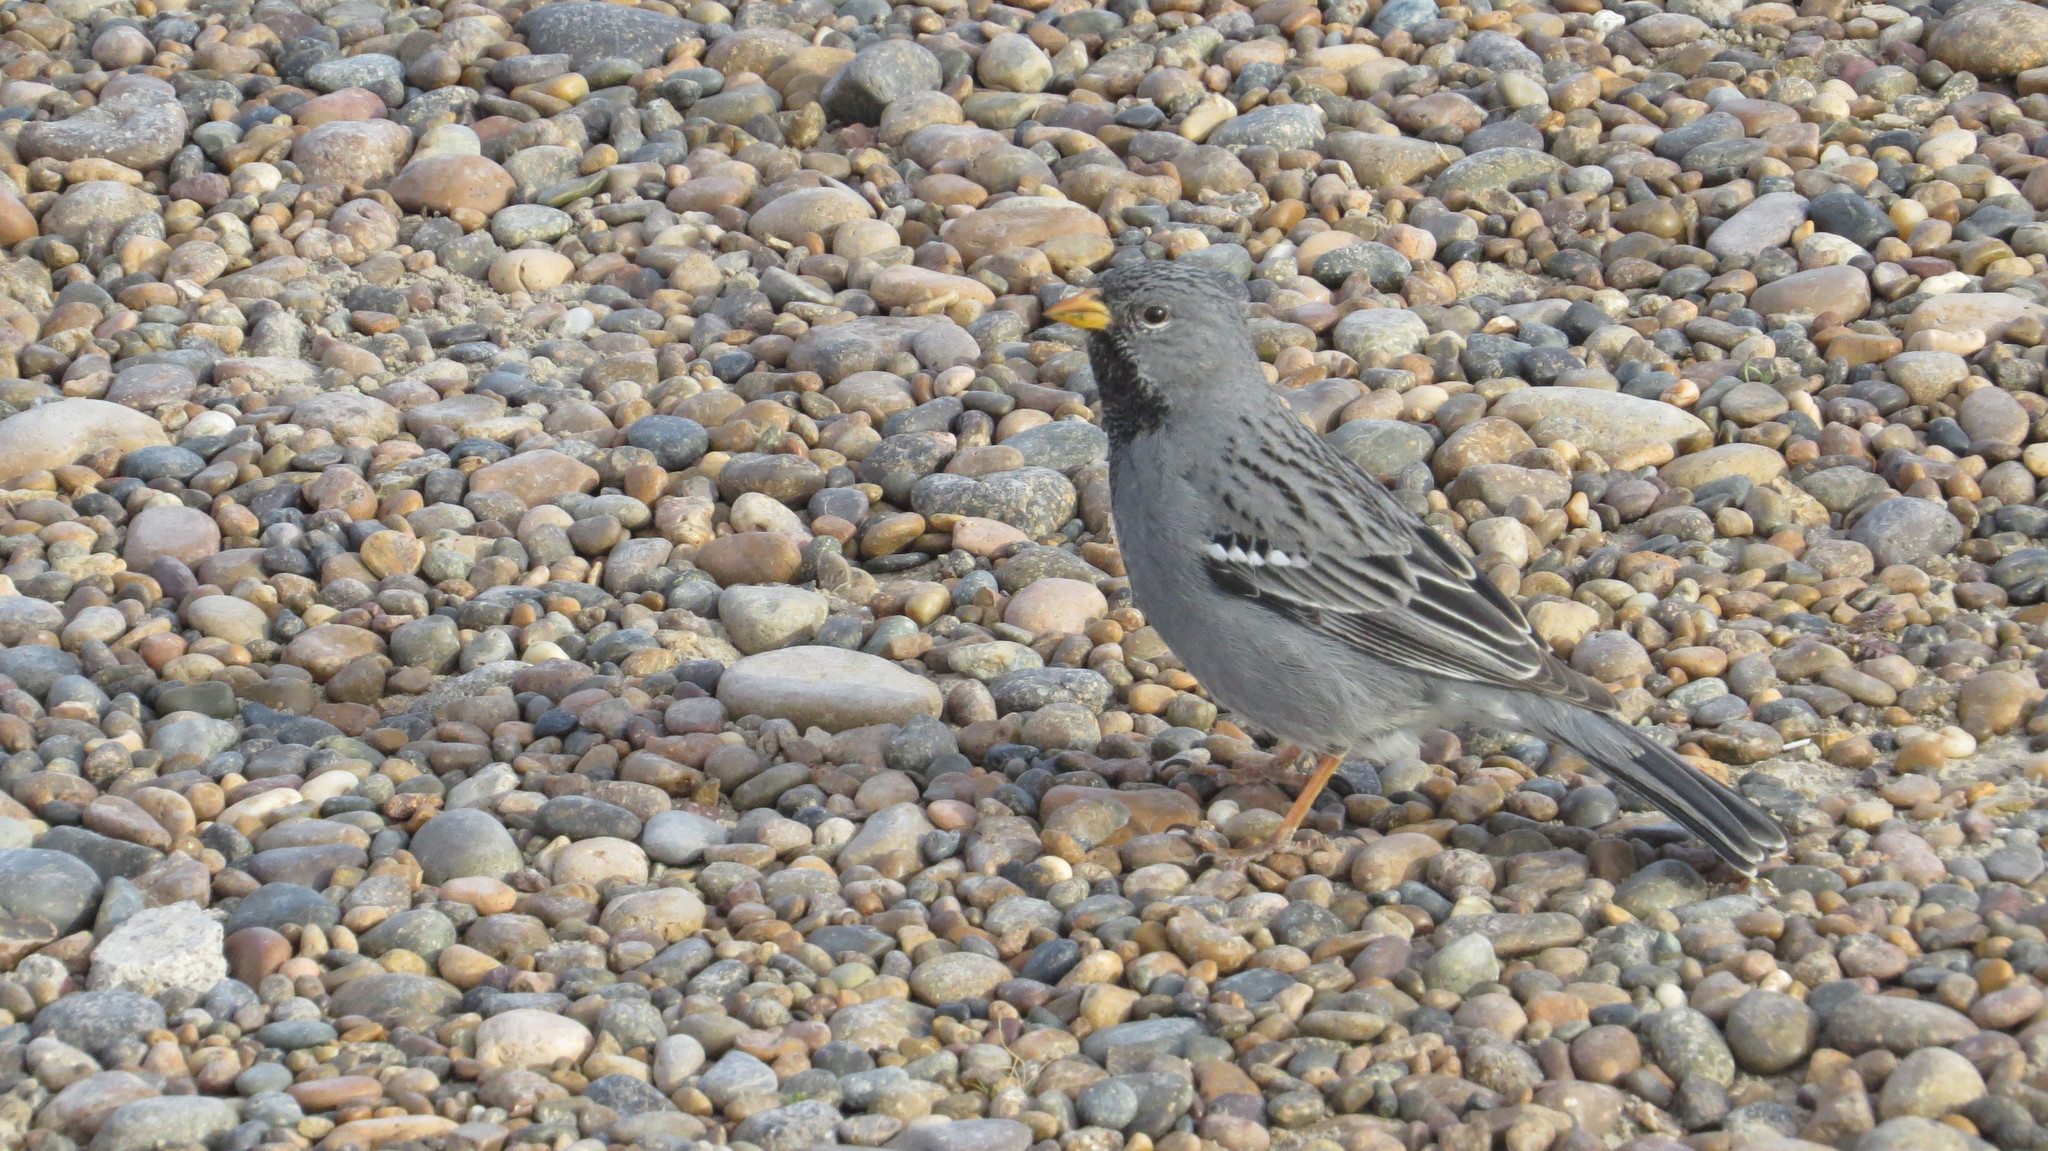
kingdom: Animalia
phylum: Chordata
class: Aves
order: Passeriformes
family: Thraupidae
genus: Rhopospina
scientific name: Rhopospina fruticeti
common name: Mourning sierra finch
